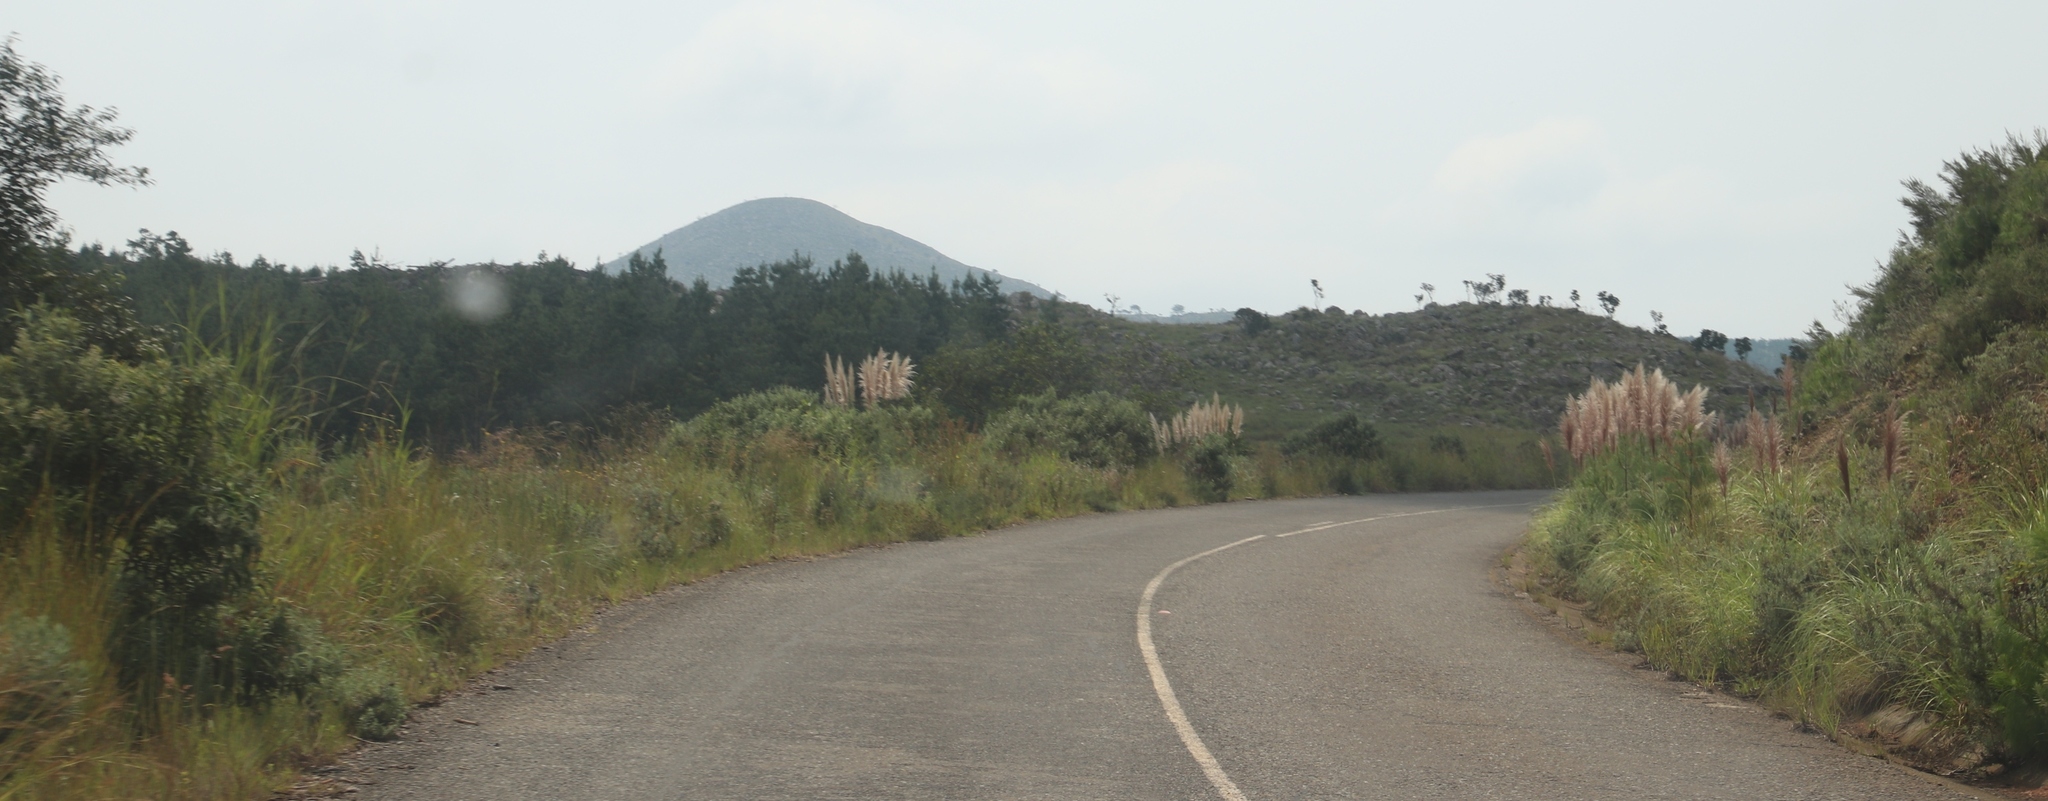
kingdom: Plantae
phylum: Tracheophyta
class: Liliopsida
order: Poales
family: Poaceae
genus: Cortaderia
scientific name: Cortaderia selloana
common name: Uruguayan pampas grass
